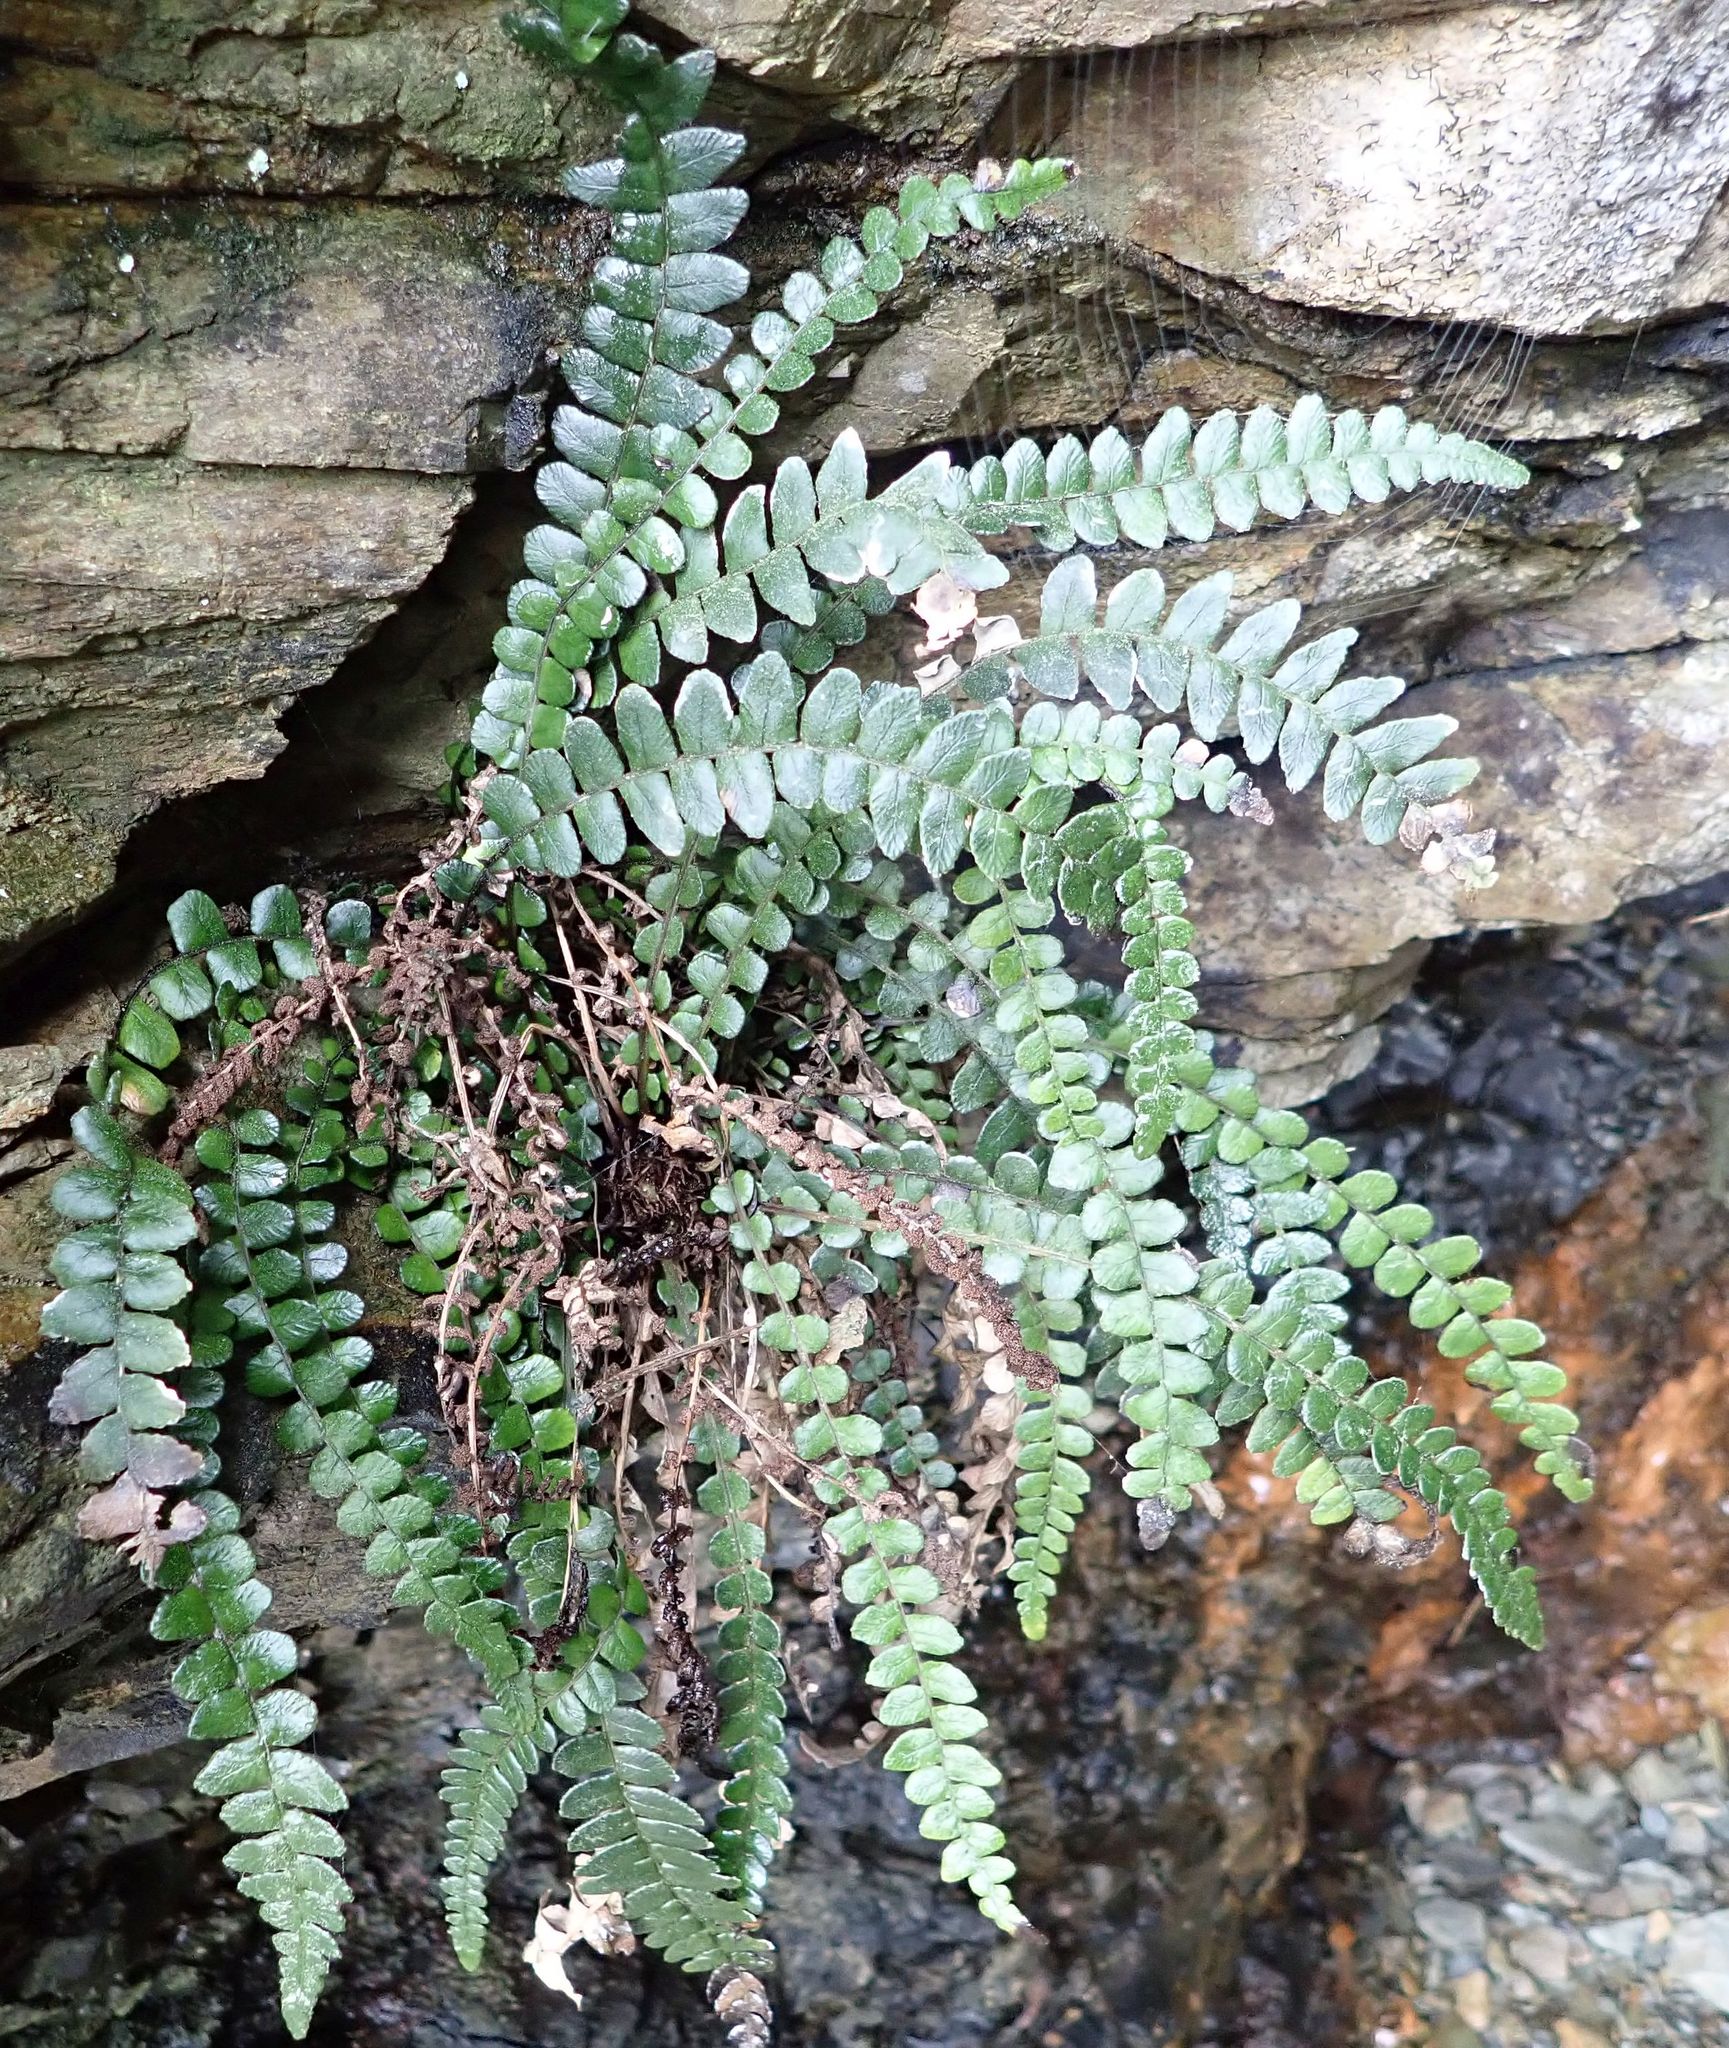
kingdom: Plantae
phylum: Tracheophyta
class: Polypodiopsida
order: Polypodiales
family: Blechnaceae
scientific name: Blechnaceae
